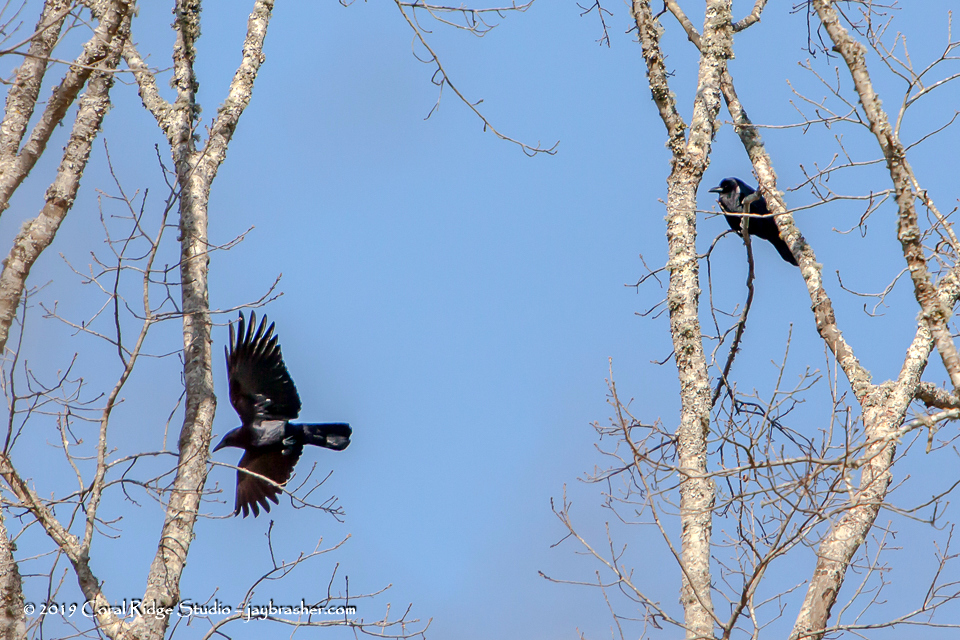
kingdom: Animalia
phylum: Chordata
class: Aves
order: Passeriformes
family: Corvidae
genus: Corvus
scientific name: Corvus brachyrhynchos
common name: American crow
